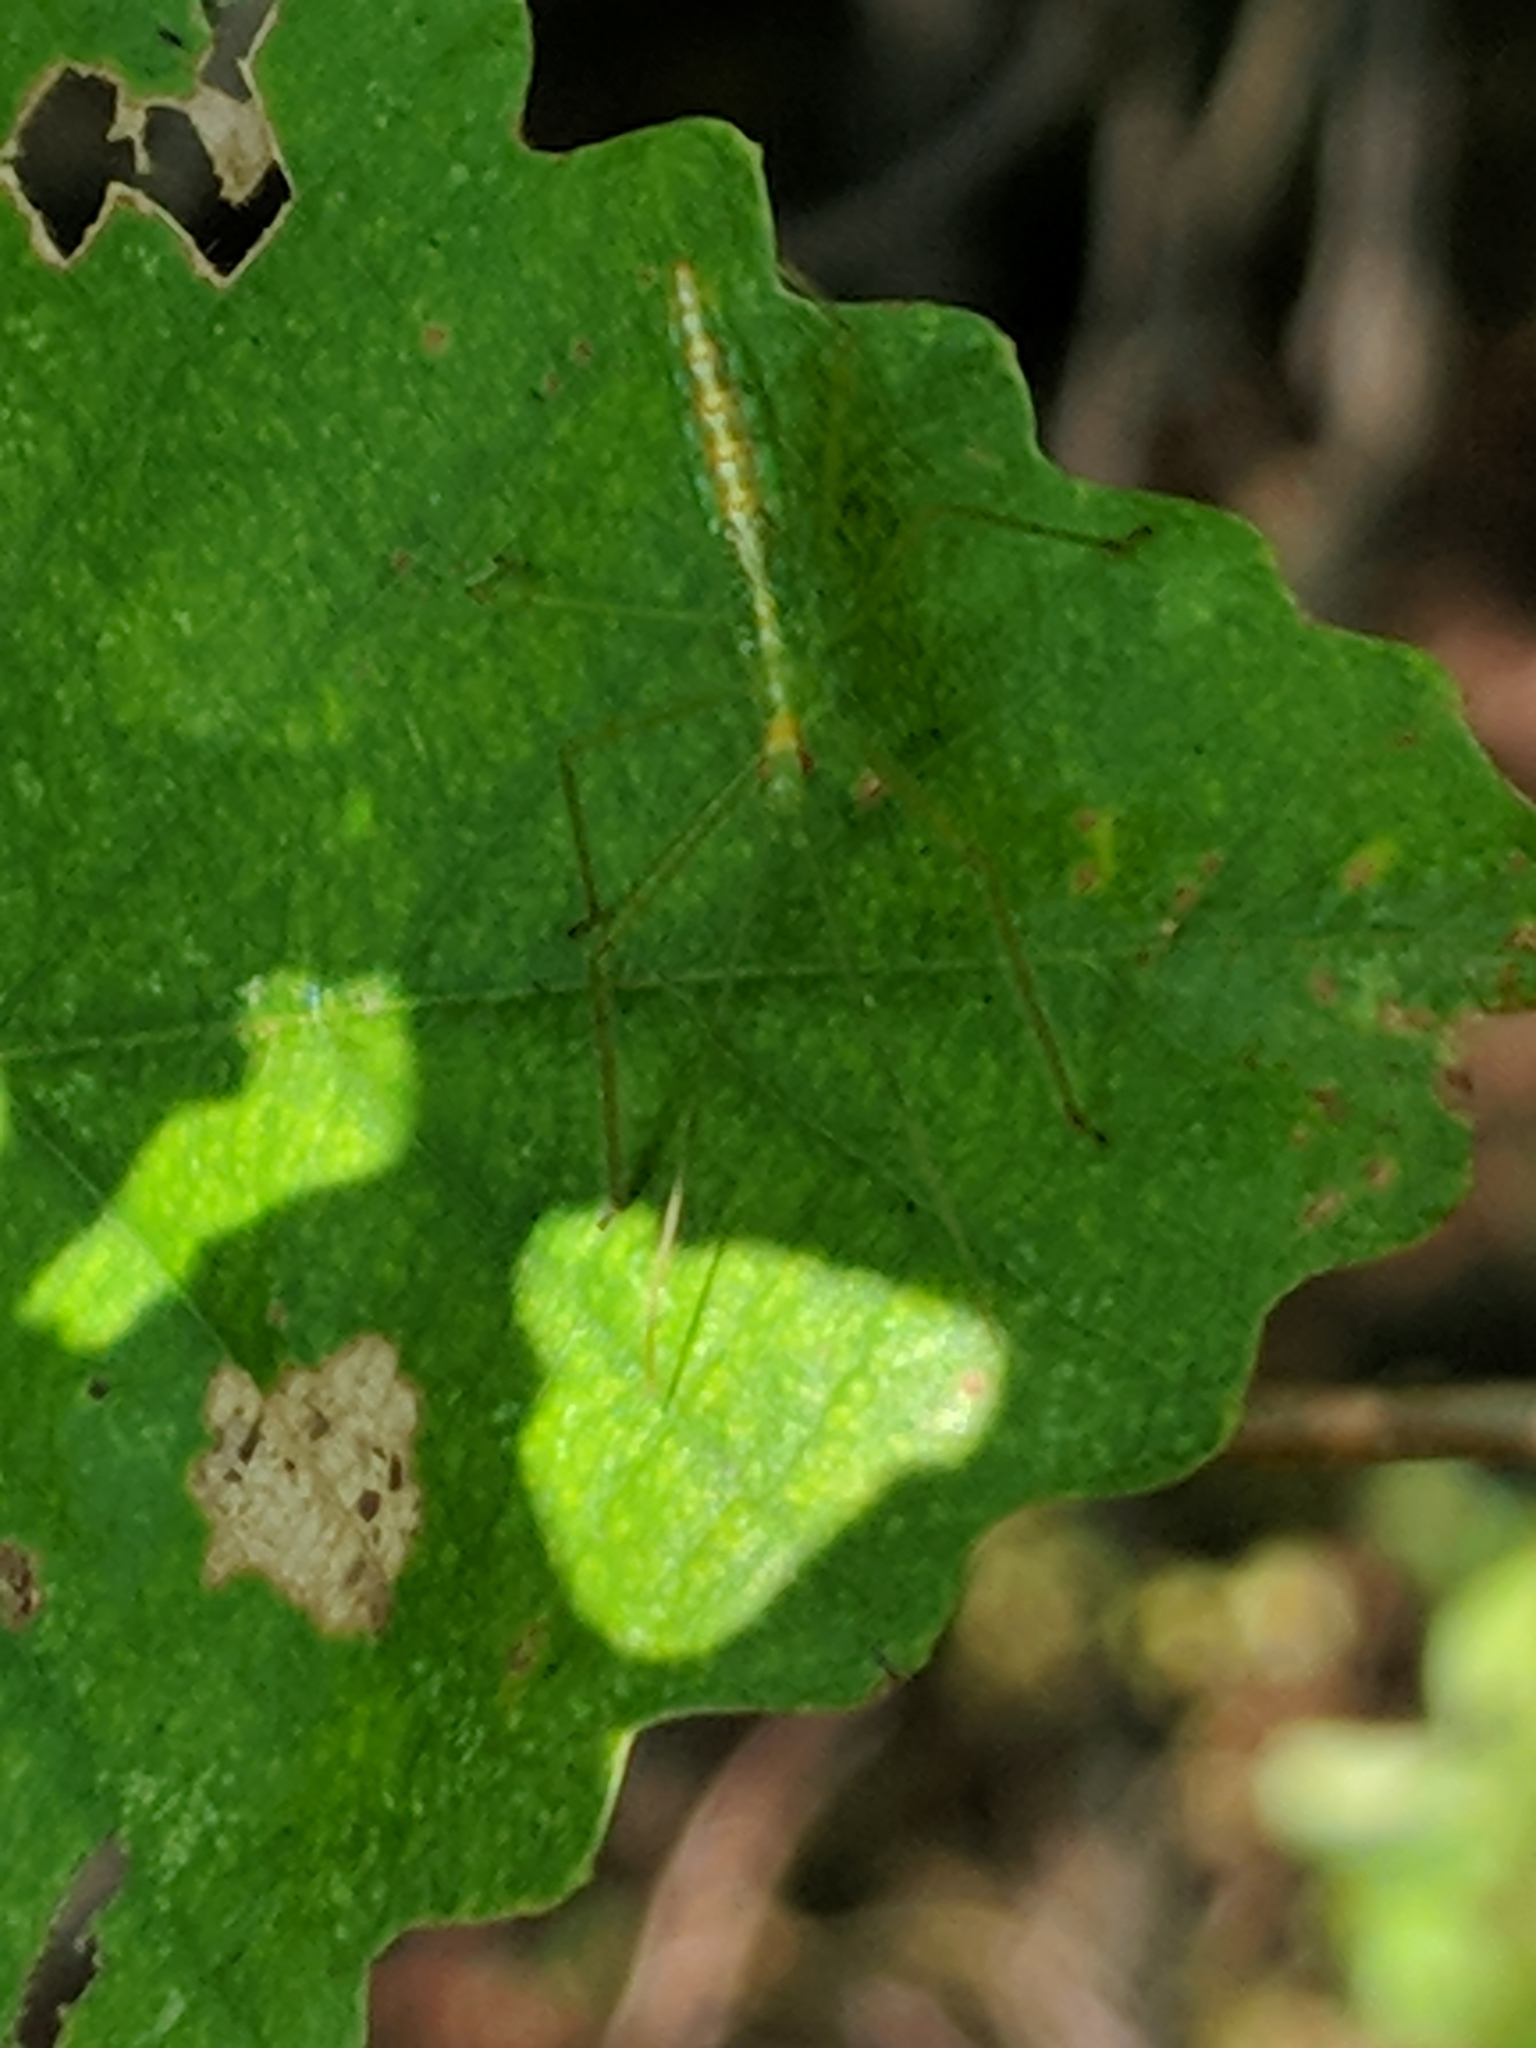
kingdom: Animalia
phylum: Arthropoda
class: Insecta
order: Hemiptera
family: Reduviidae
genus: Zelus
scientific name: Zelus luridus
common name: Pale green assassin bug
